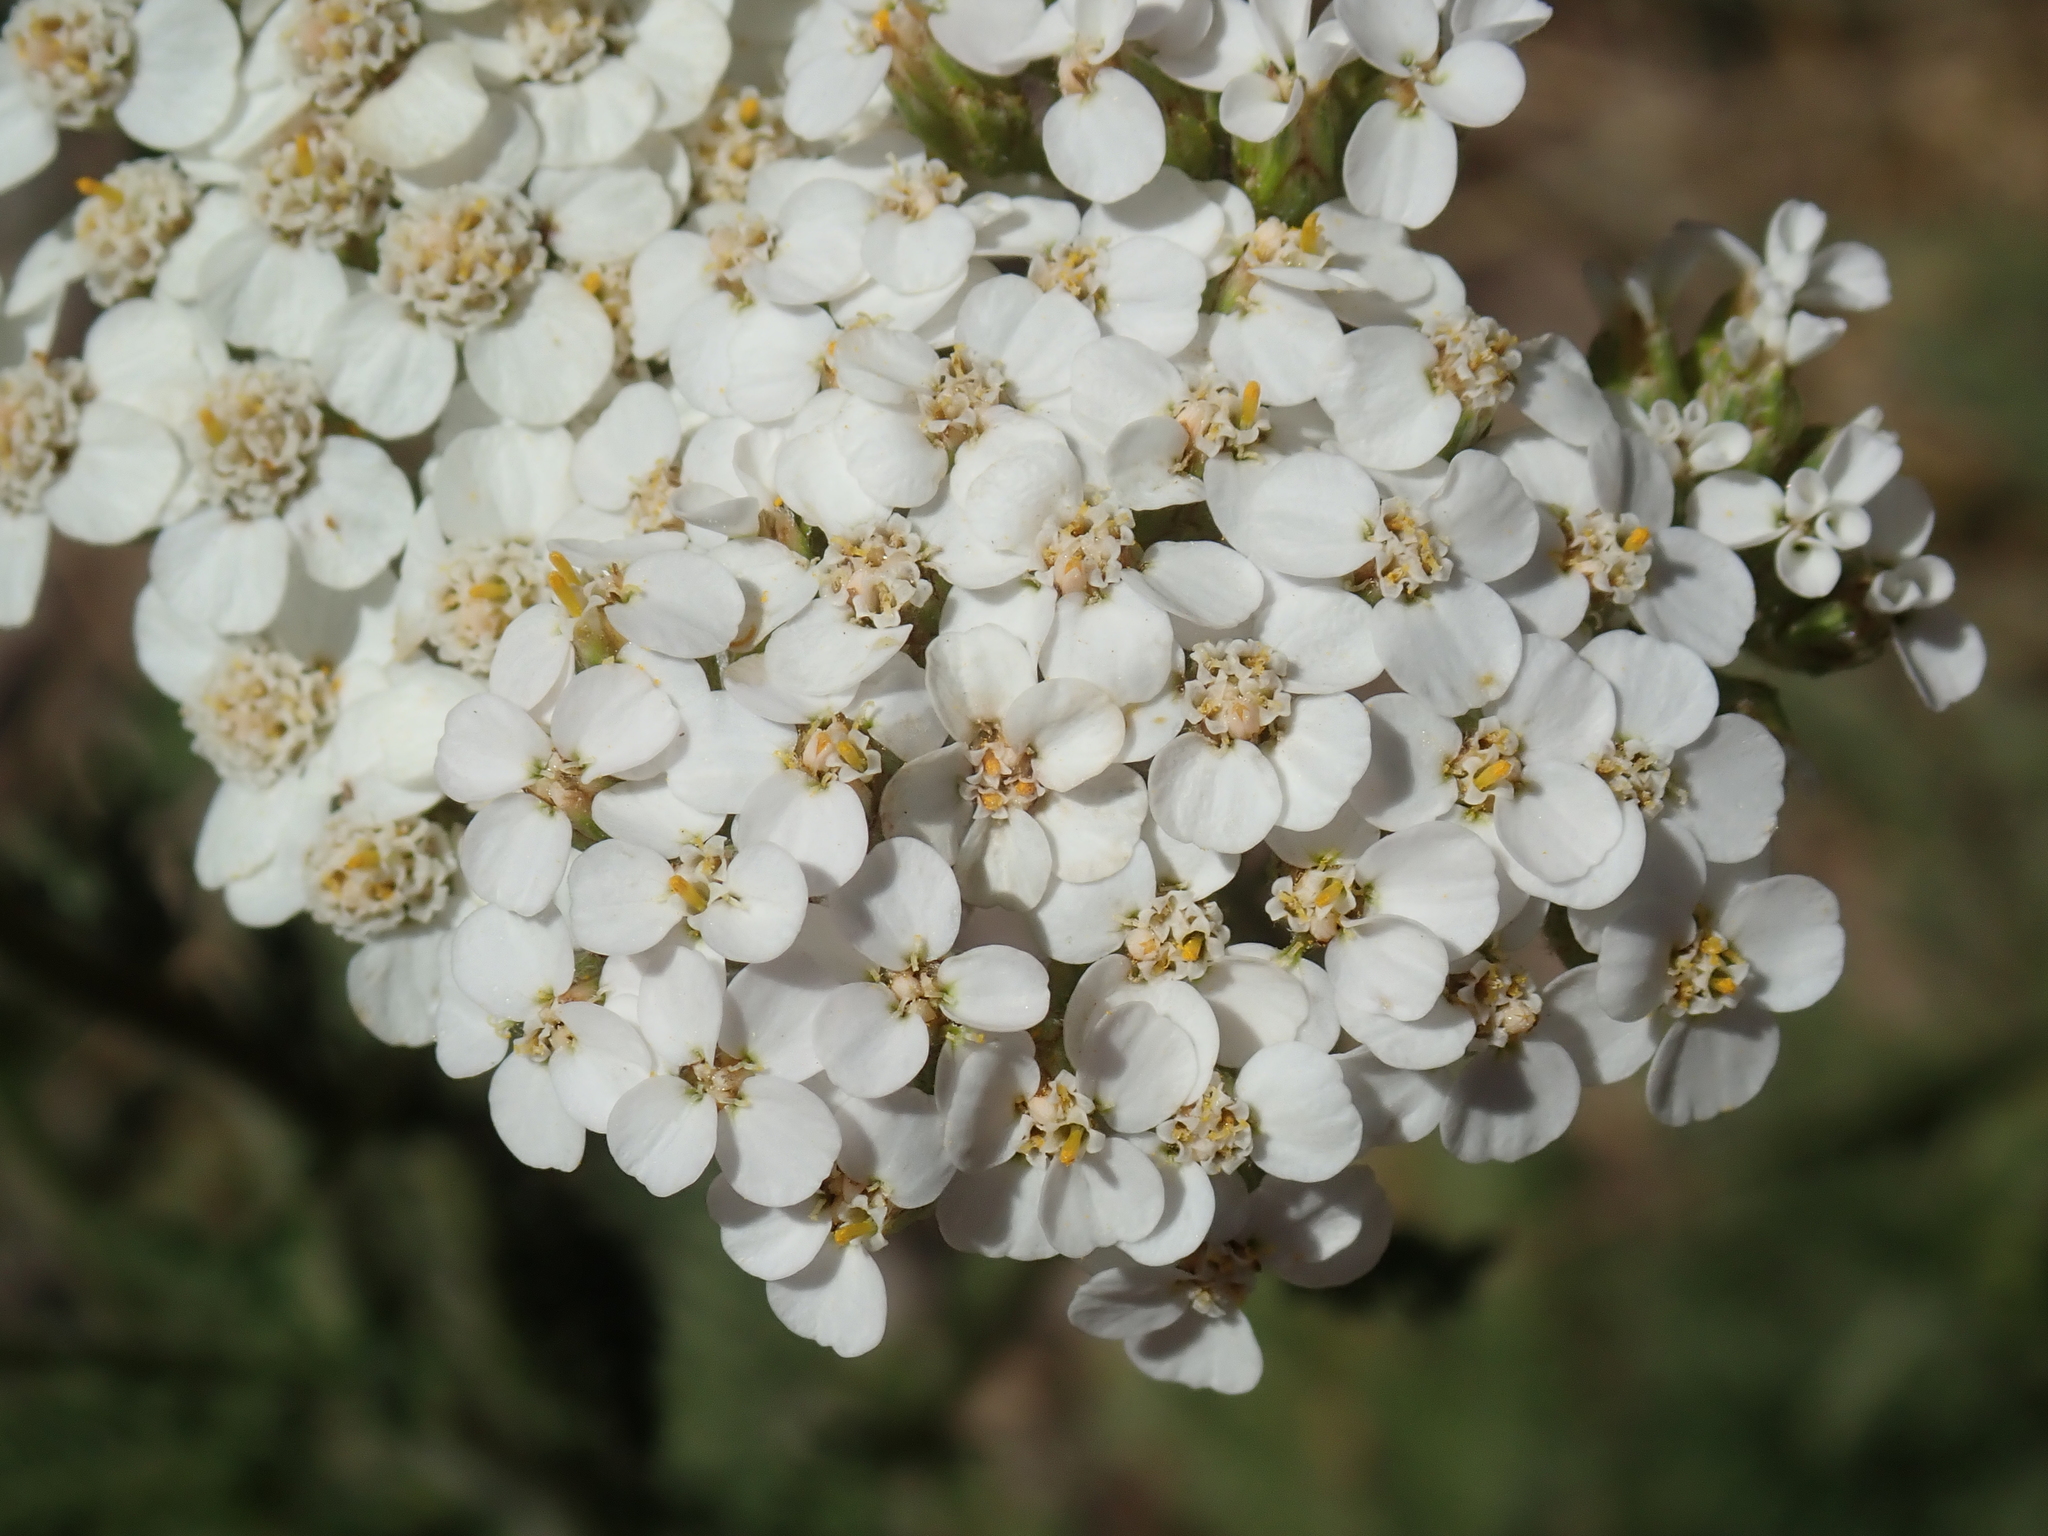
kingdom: Plantae
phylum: Tracheophyta
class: Magnoliopsida
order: Asterales
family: Asteraceae
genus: Achillea
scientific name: Achillea millefolium
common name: Yarrow
